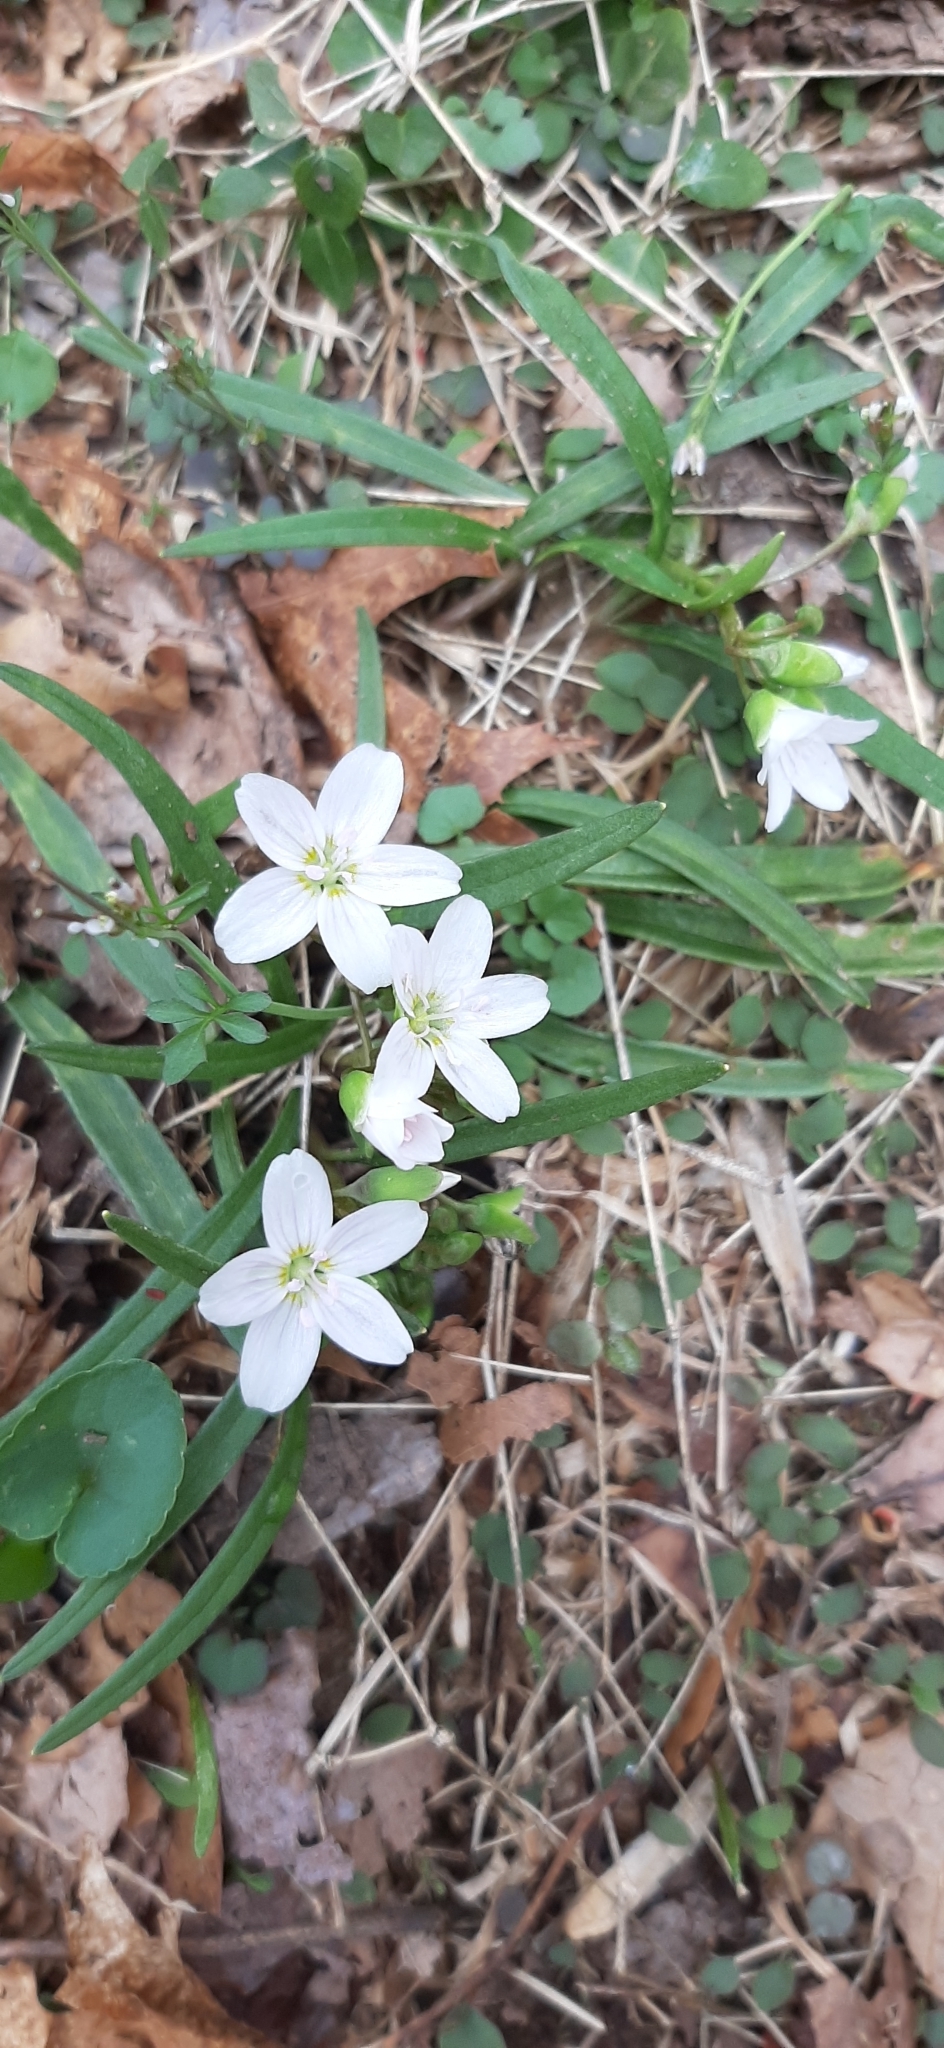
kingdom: Plantae
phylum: Tracheophyta
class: Magnoliopsida
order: Caryophyllales
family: Montiaceae
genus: Claytonia
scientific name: Claytonia virginica
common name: Virginia springbeauty
